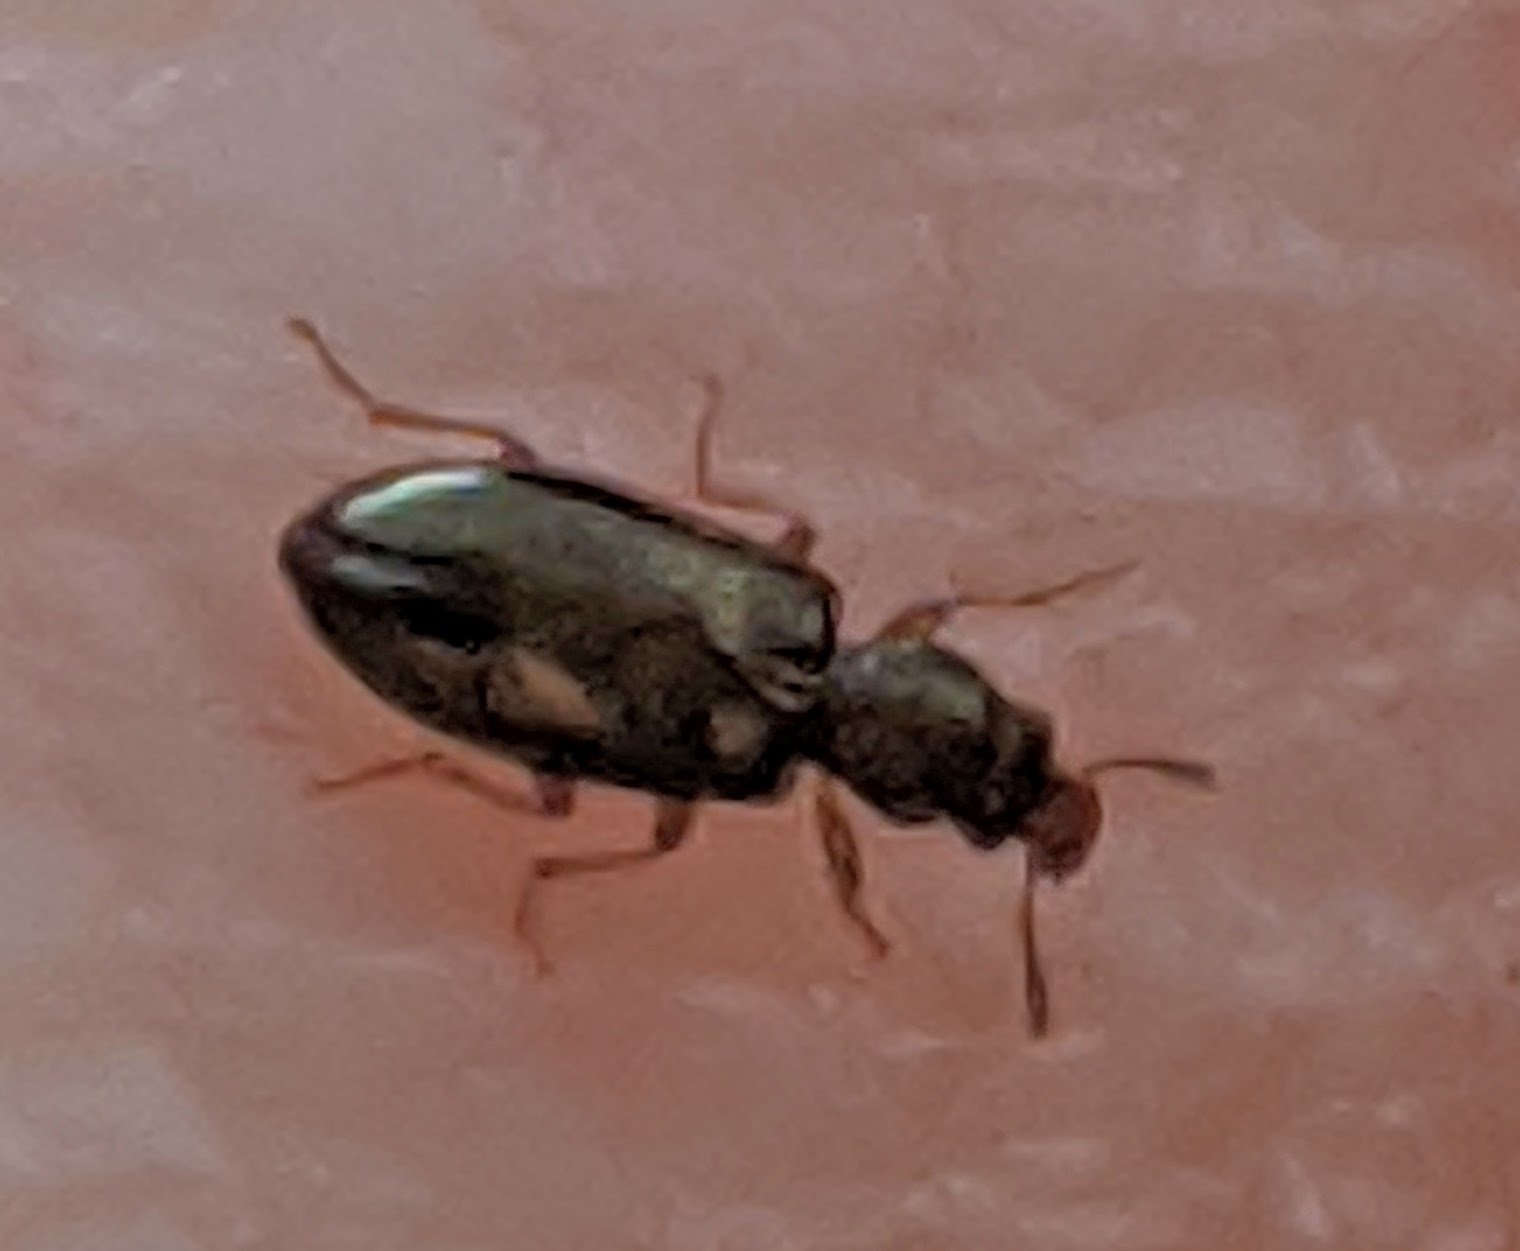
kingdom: Animalia
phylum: Arthropoda
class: Insecta
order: Coleoptera
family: Salpingidae
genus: Salpingus
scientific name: Salpingus planirostris
